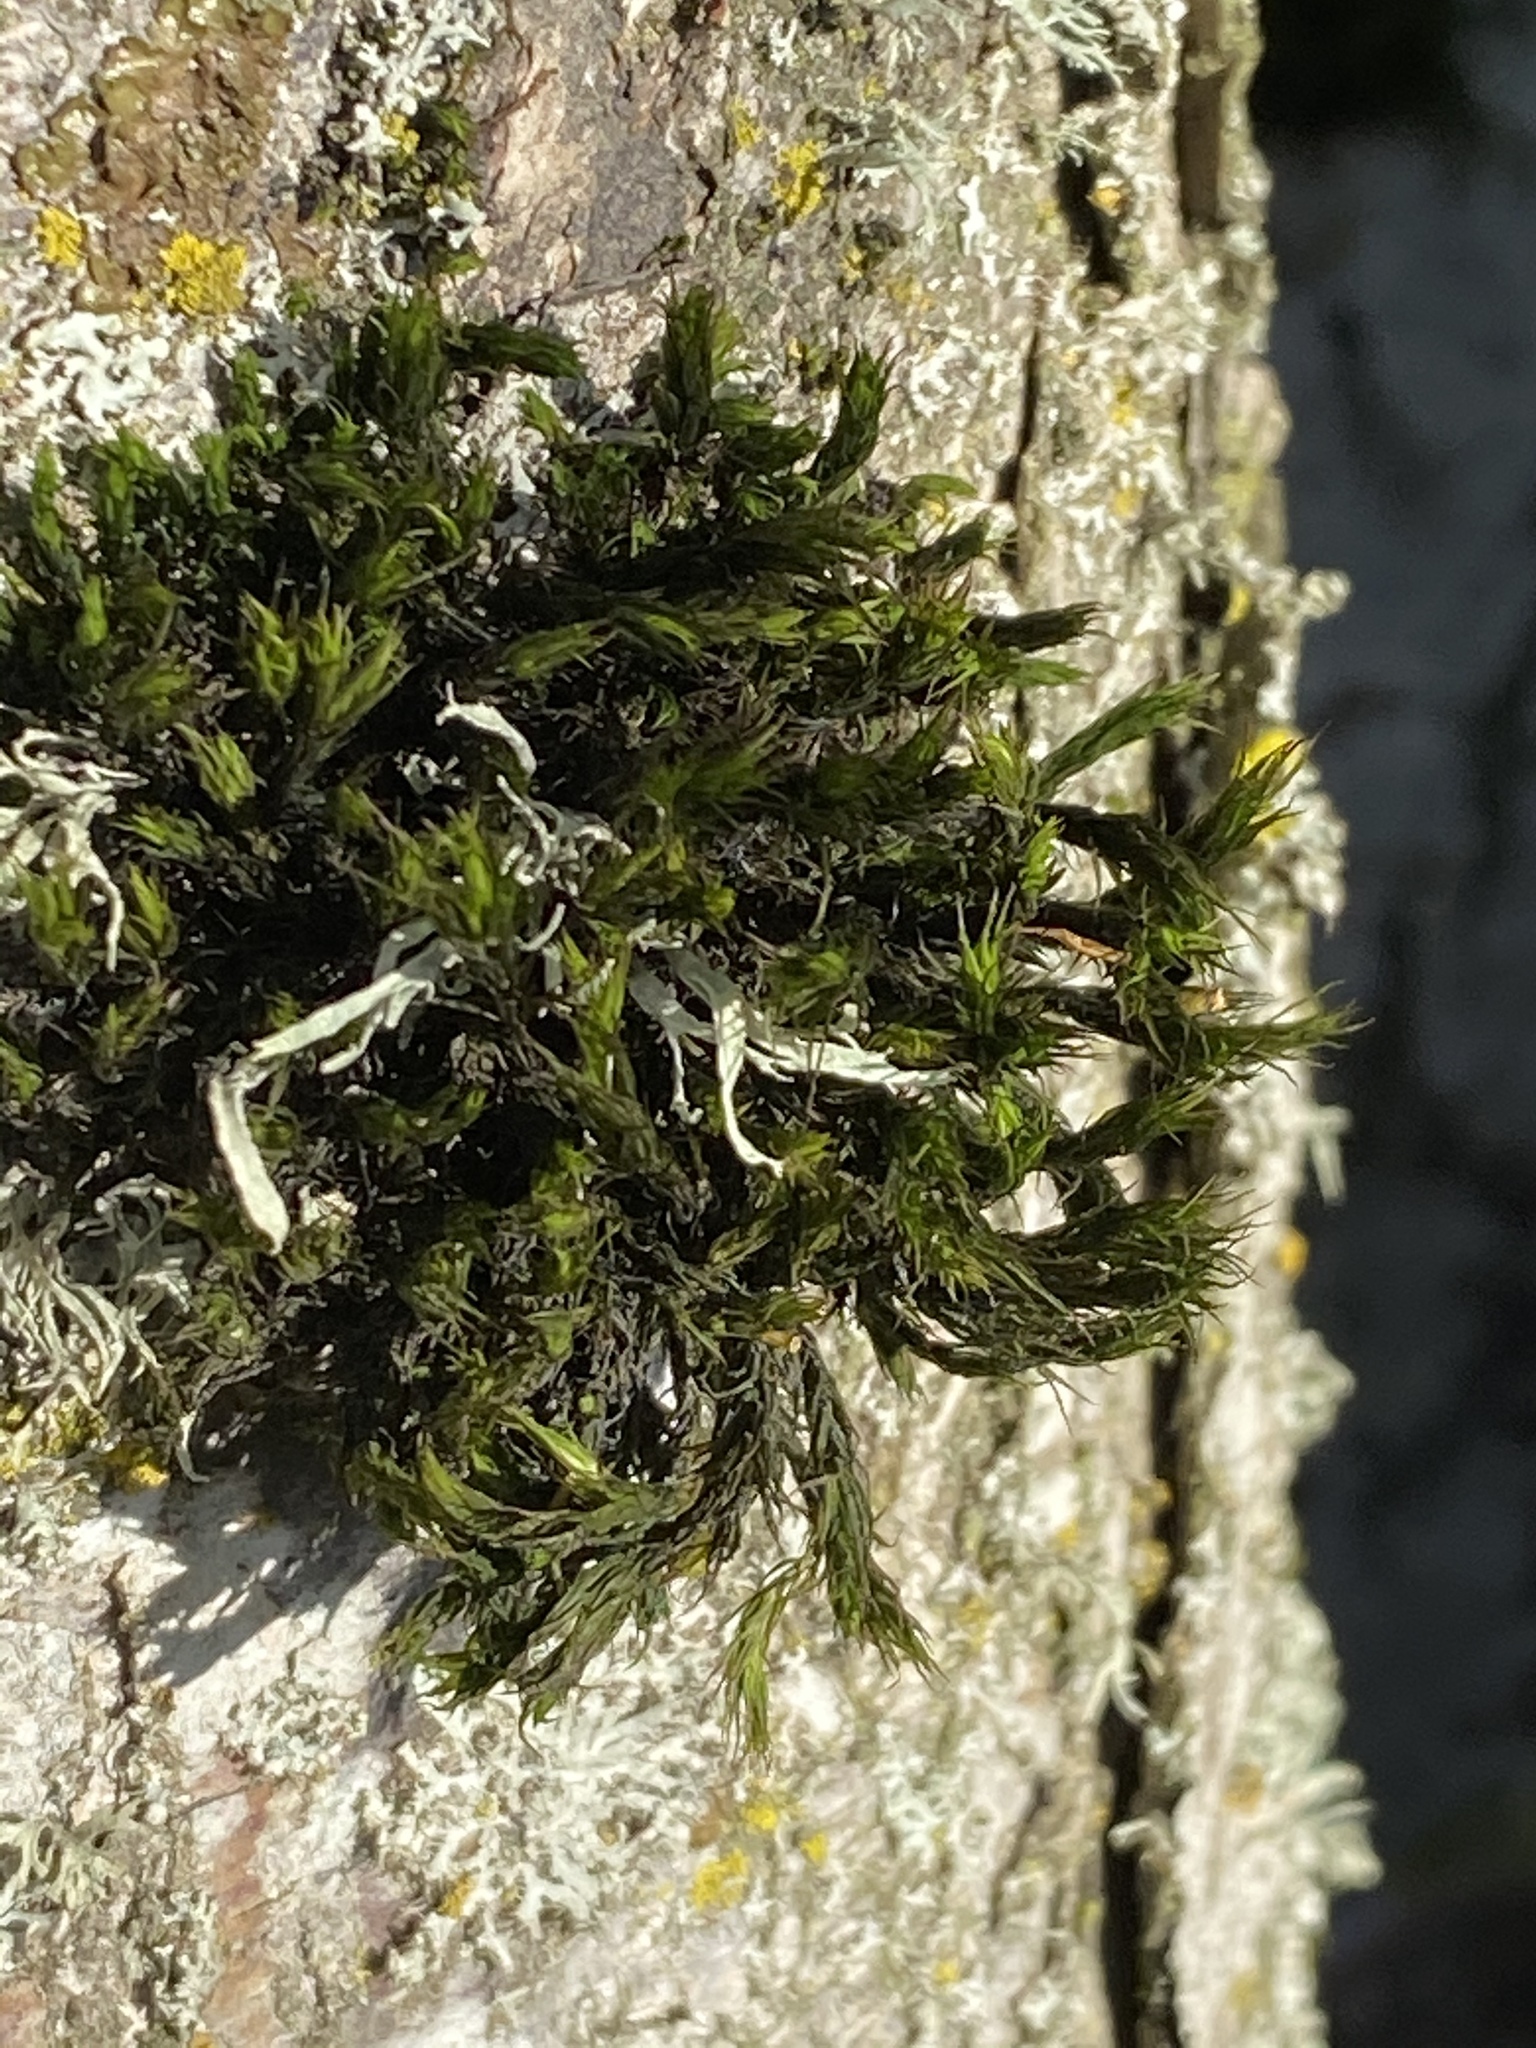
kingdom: Plantae
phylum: Bryophyta
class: Bryopsida
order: Orthotrichales
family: Orthotrichaceae
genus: Pulvigera
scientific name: Pulvigera lyellii
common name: Lyell's bristle-moss
